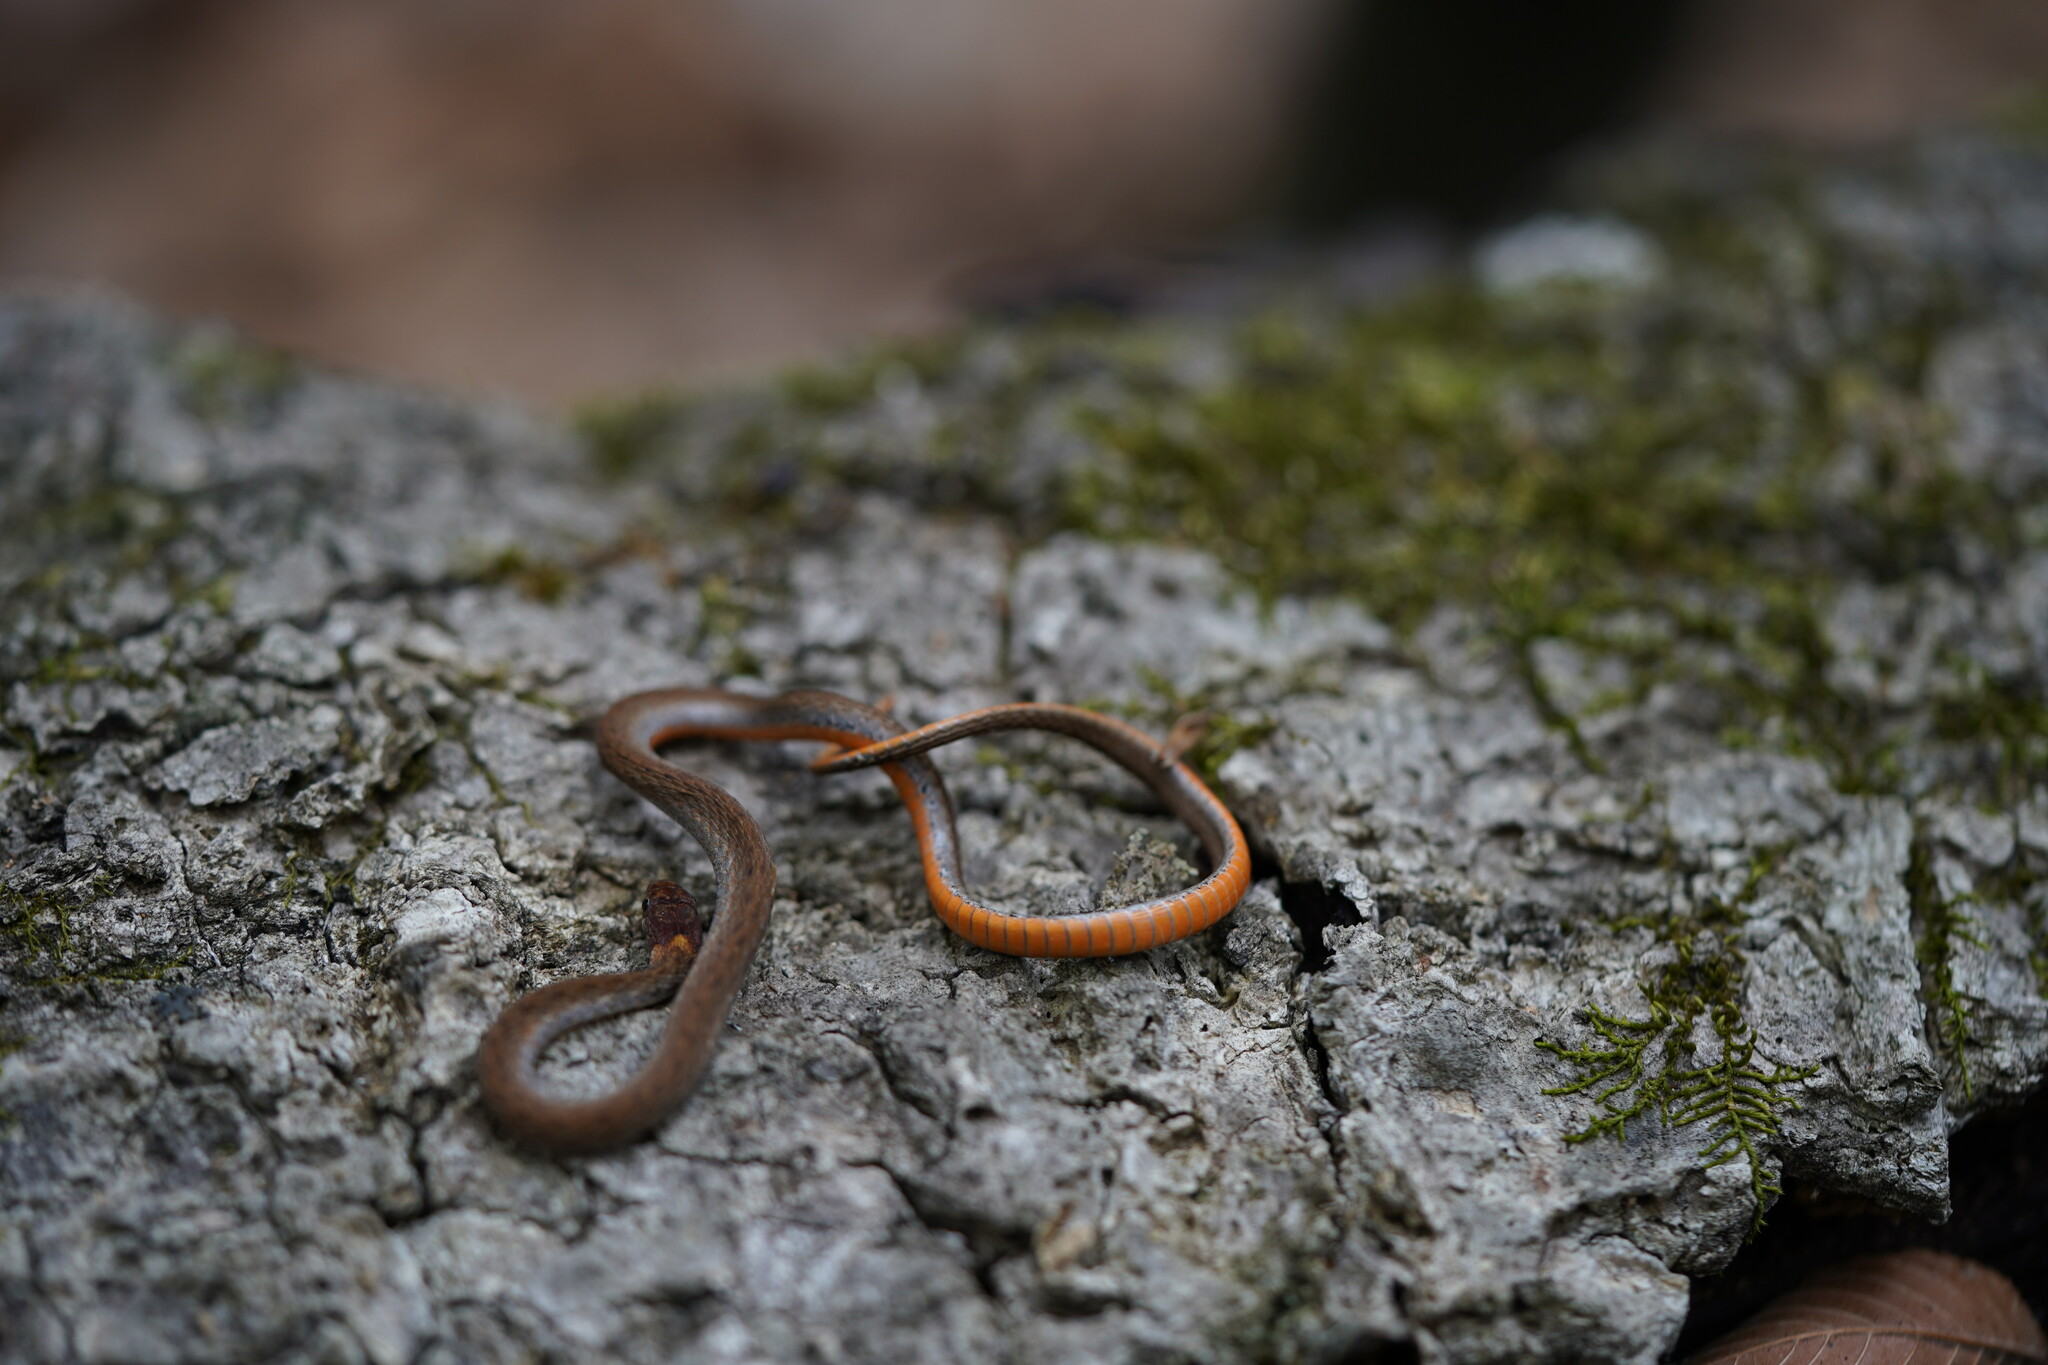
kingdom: Animalia
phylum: Chordata
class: Squamata
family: Colubridae
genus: Storeria
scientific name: Storeria occipitomaculata
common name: Redbelly snake
